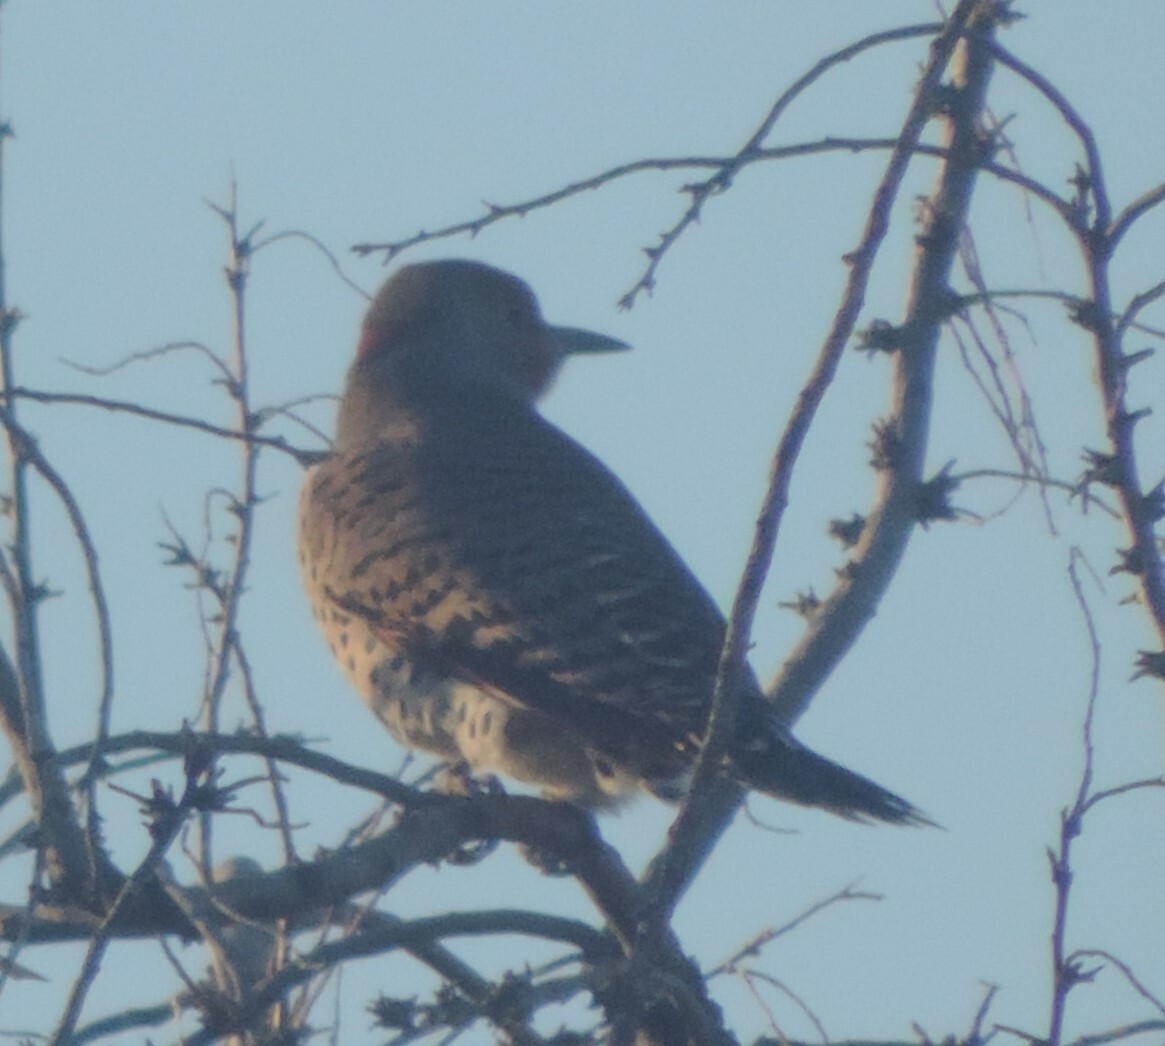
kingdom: Animalia
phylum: Chordata
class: Aves
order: Piciformes
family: Picidae
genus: Colaptes
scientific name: Colaptes auratus
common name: Northern flicker
